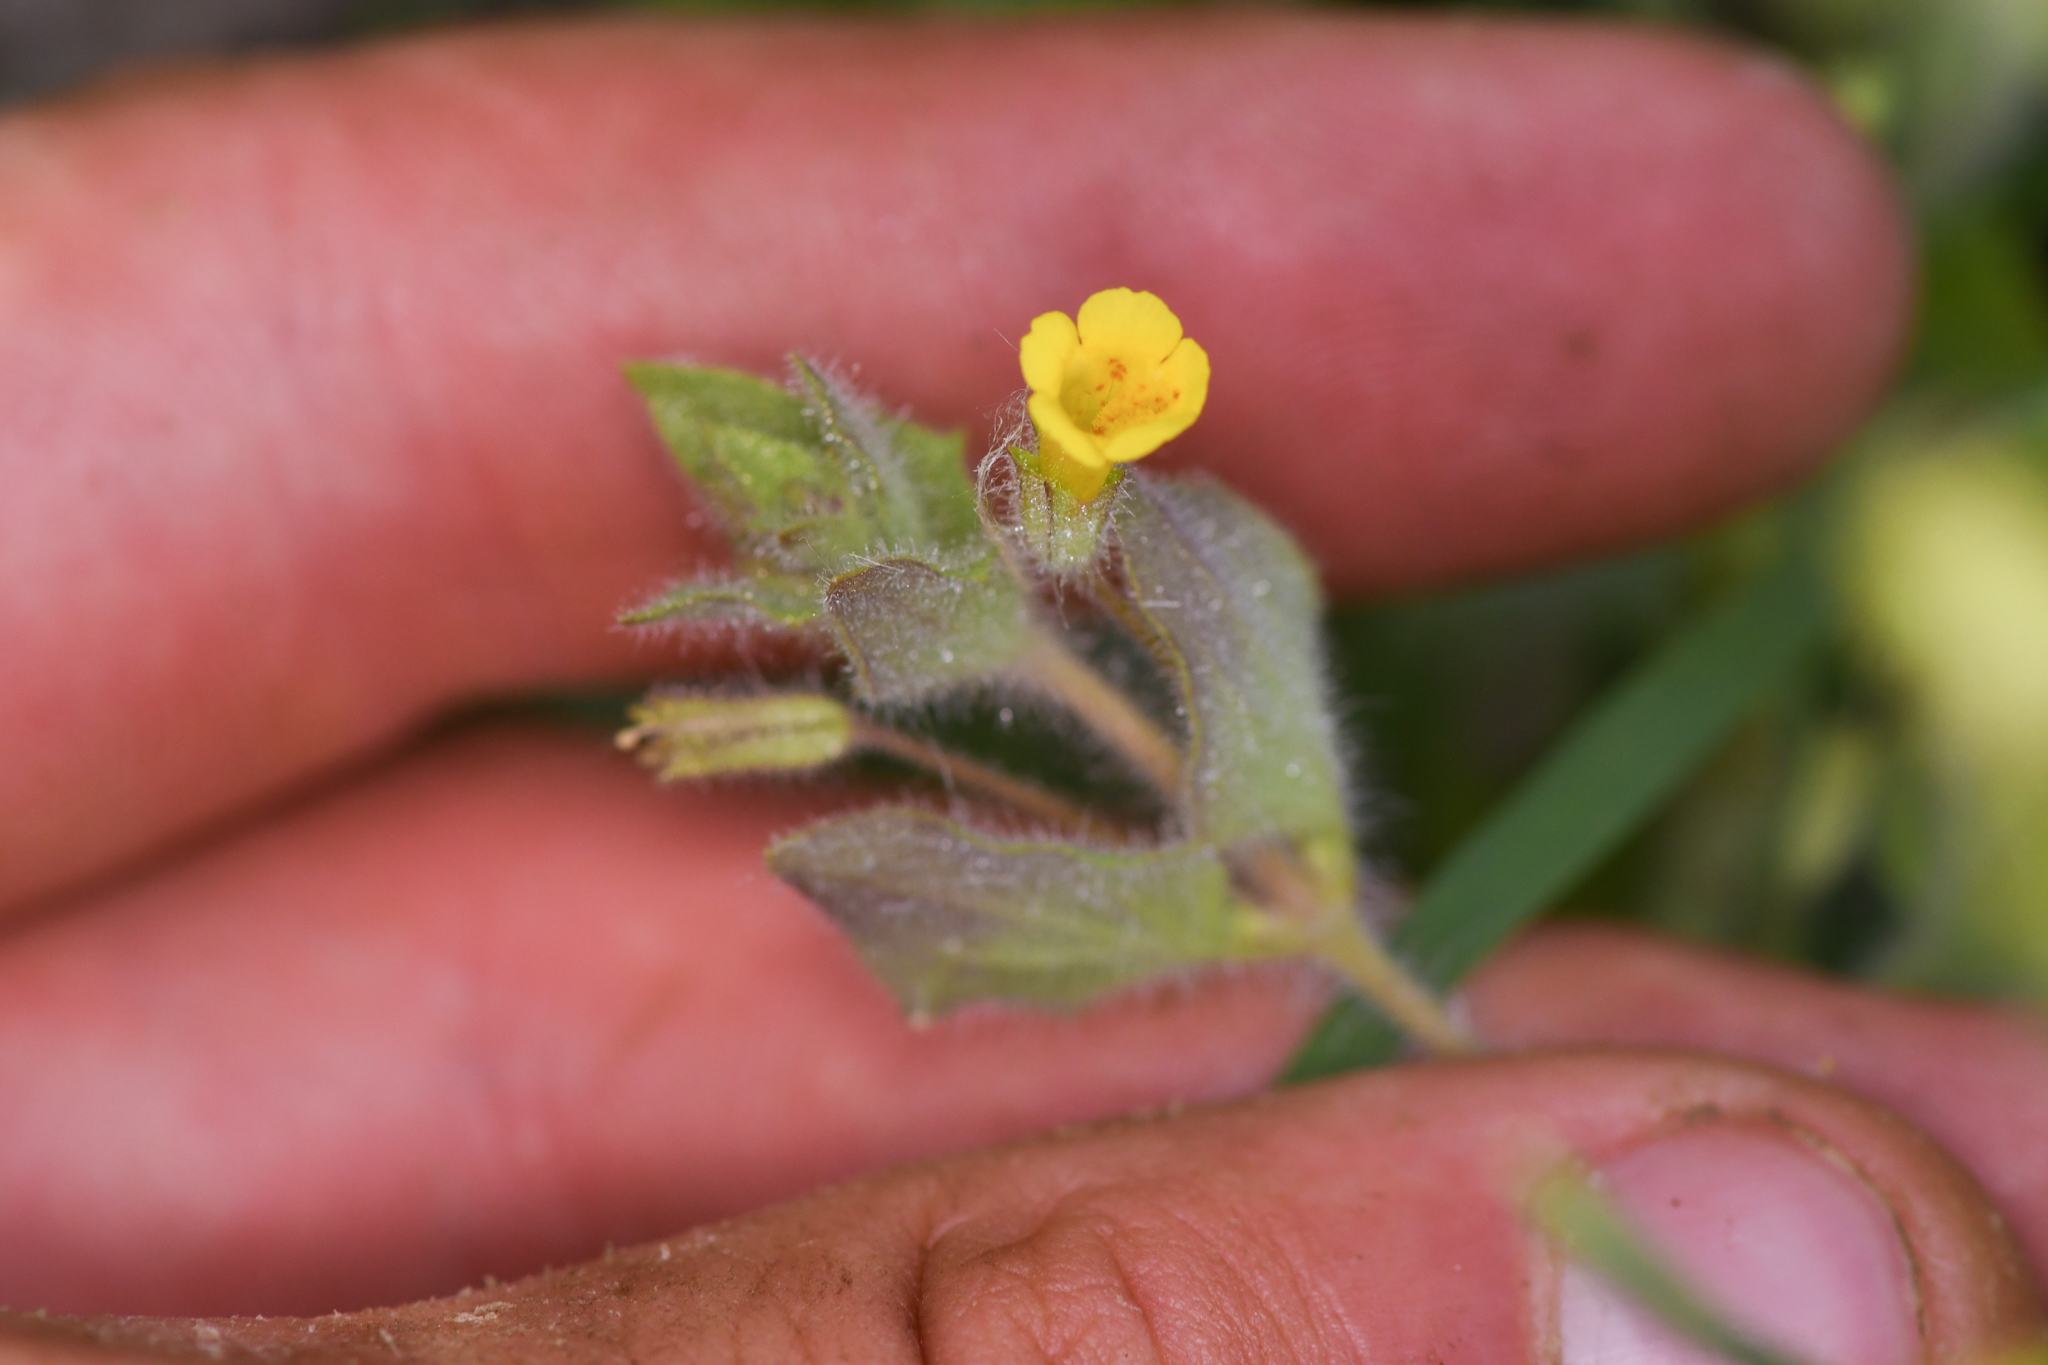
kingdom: Plantae
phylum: Tracheophyta
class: Magnoliopsida
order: Lamiales
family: Phrymaceae
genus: Erythranthe
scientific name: Erythranthe floribunda
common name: Floriferous monkeyflower
